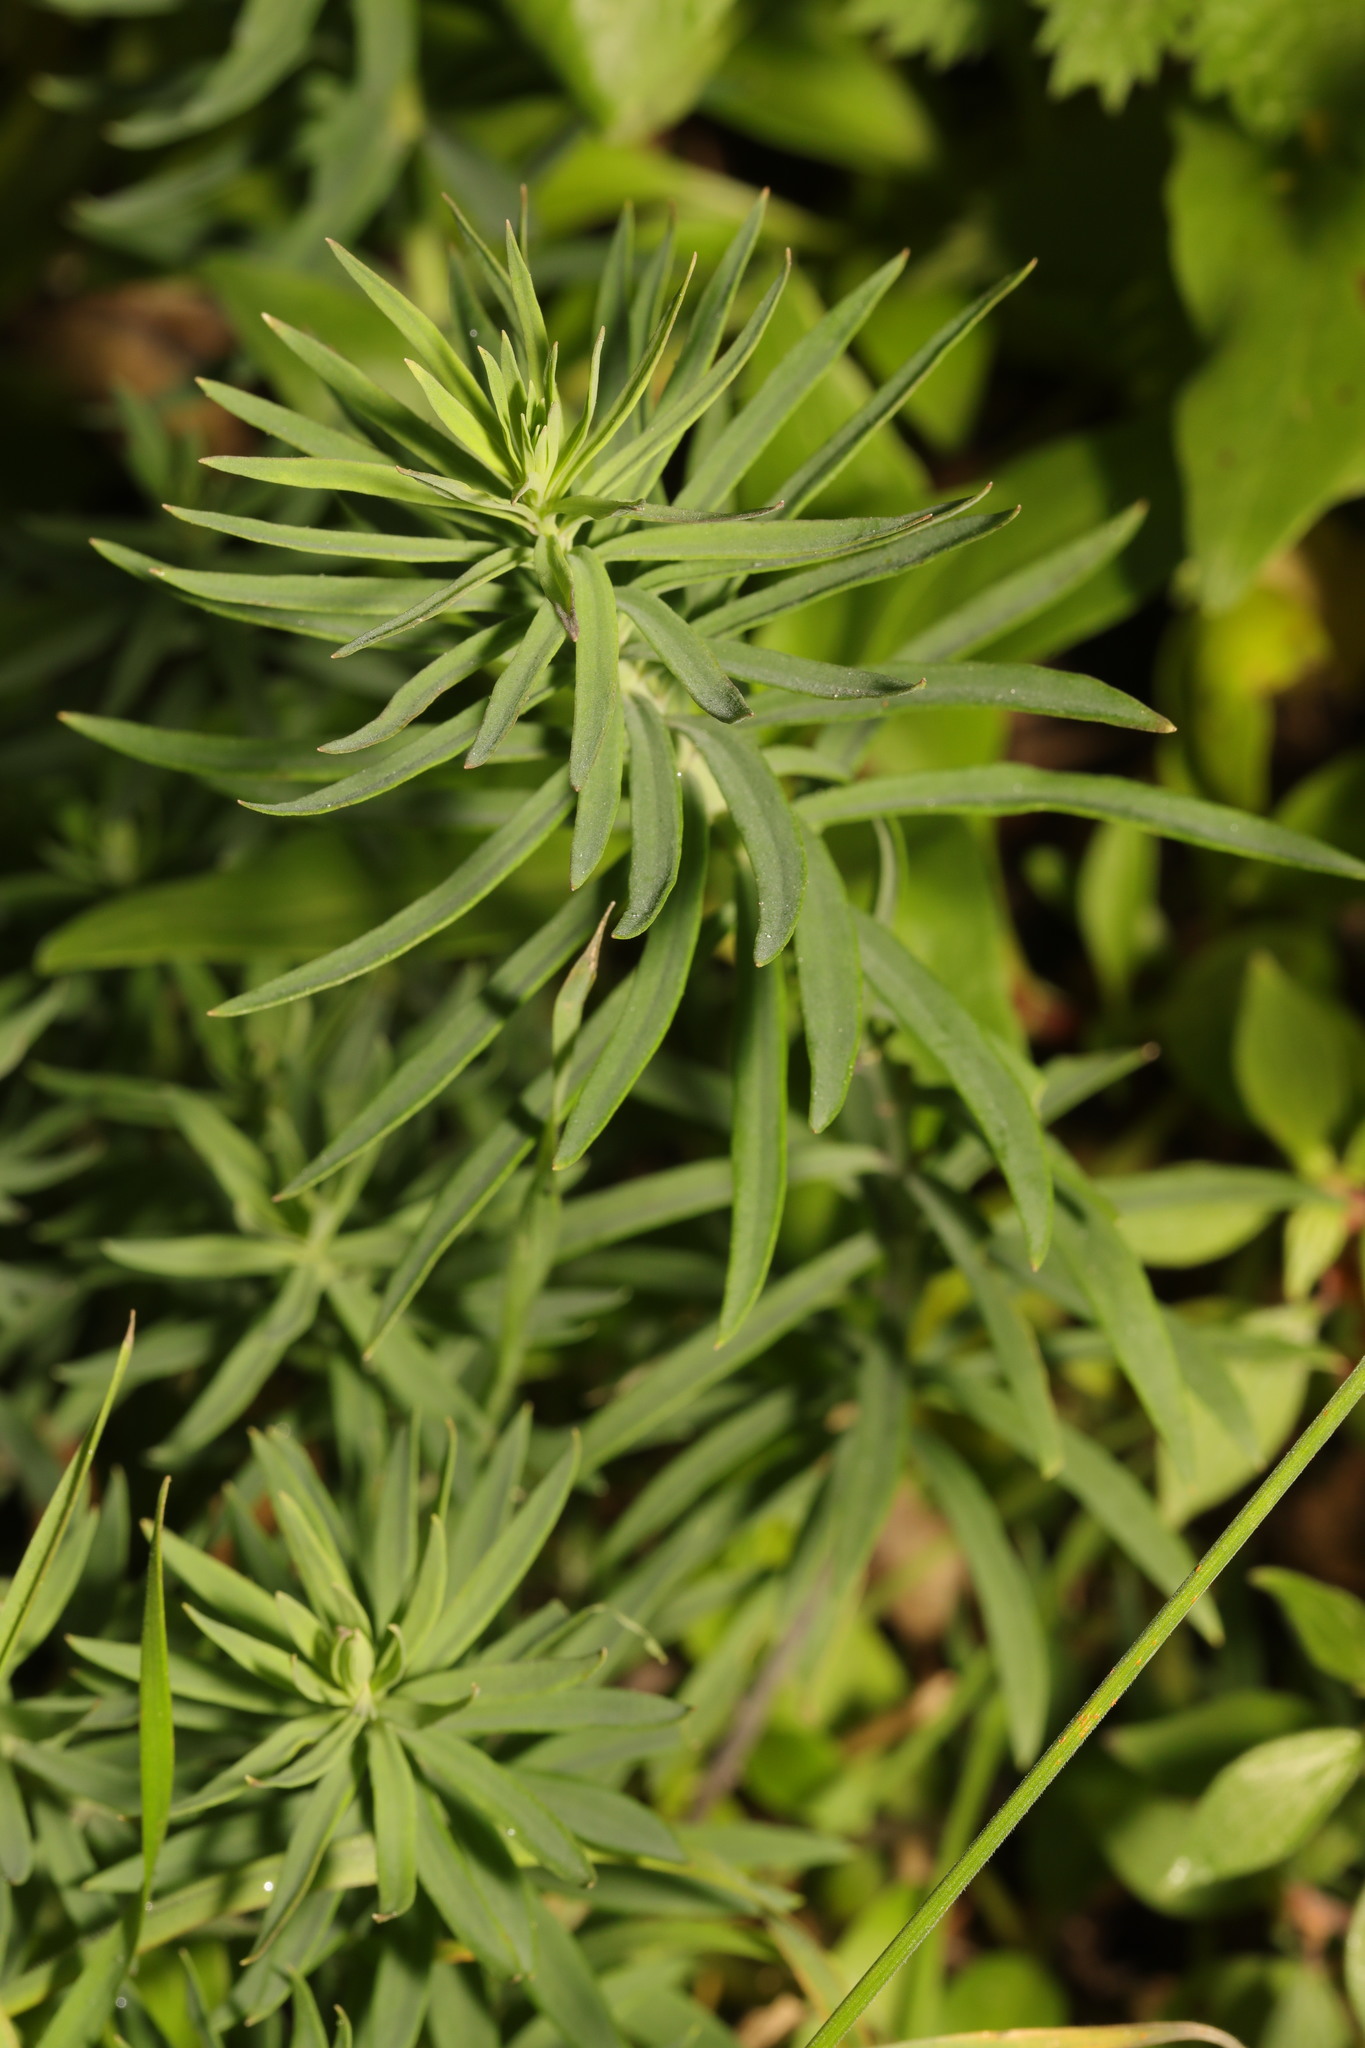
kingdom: Plantae
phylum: Tracheophyta
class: Magnoliopsida
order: Lamiales
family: Plantaginaceae
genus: Linaria
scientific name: Linaria vulgaris
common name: Butter and eggs
